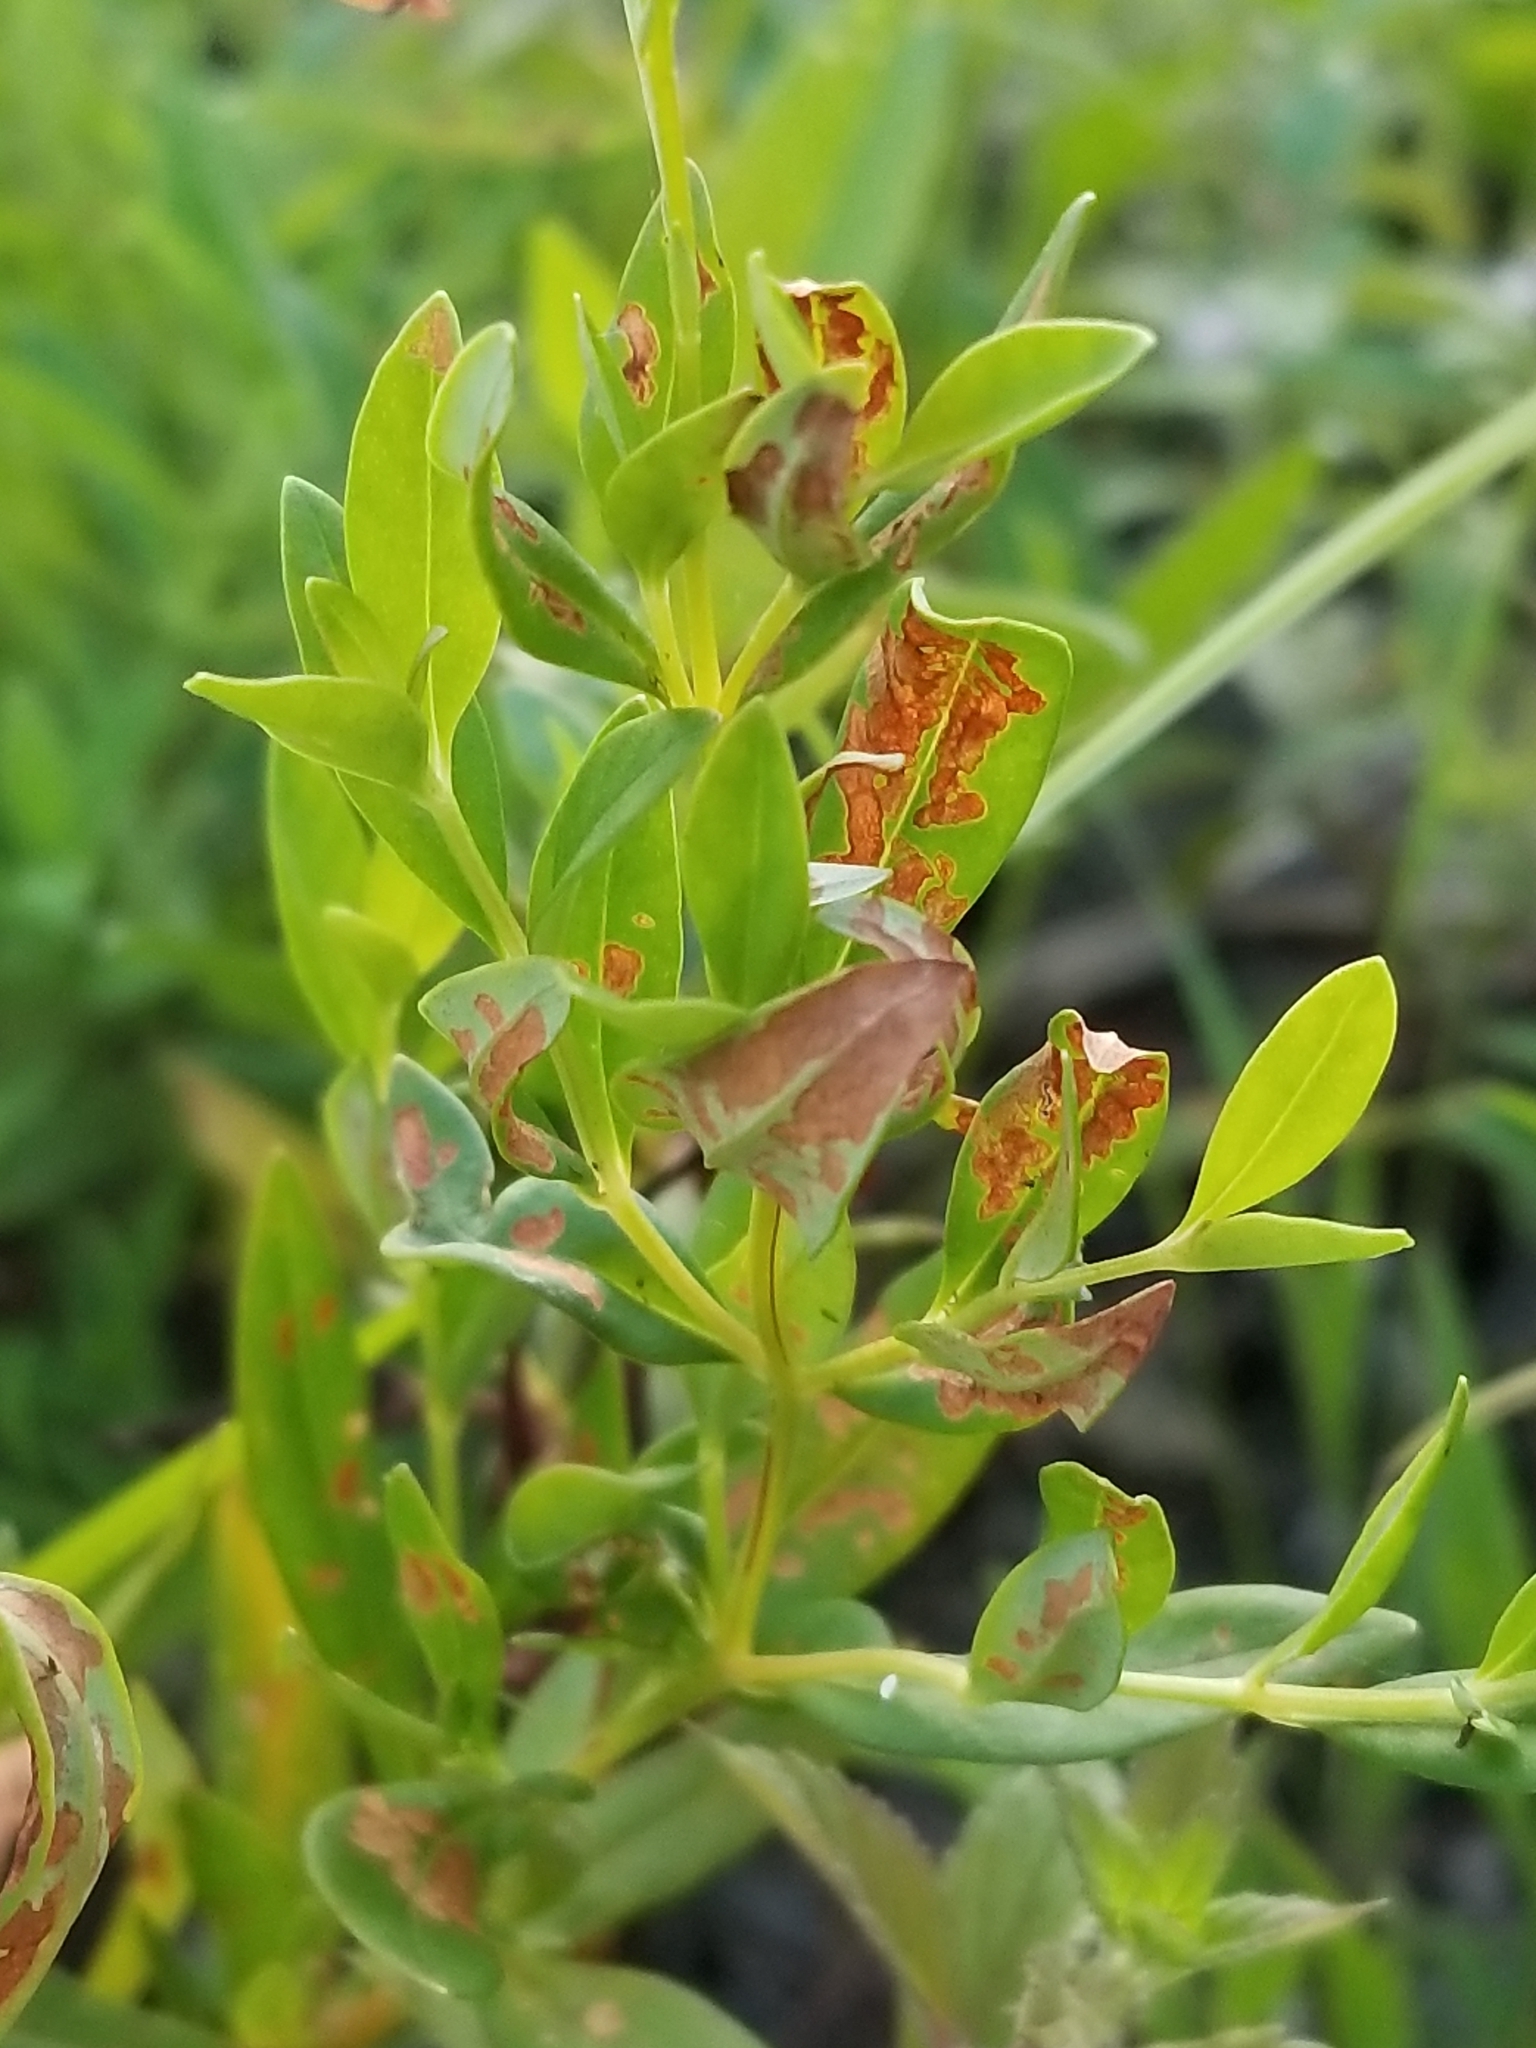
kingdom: Plantae
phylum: Tracheophyta
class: Magnoliopsida
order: Ericales
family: Primulaceae
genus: Lysimachia
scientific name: Lysimachia terrestris
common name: Lake loosestrife
